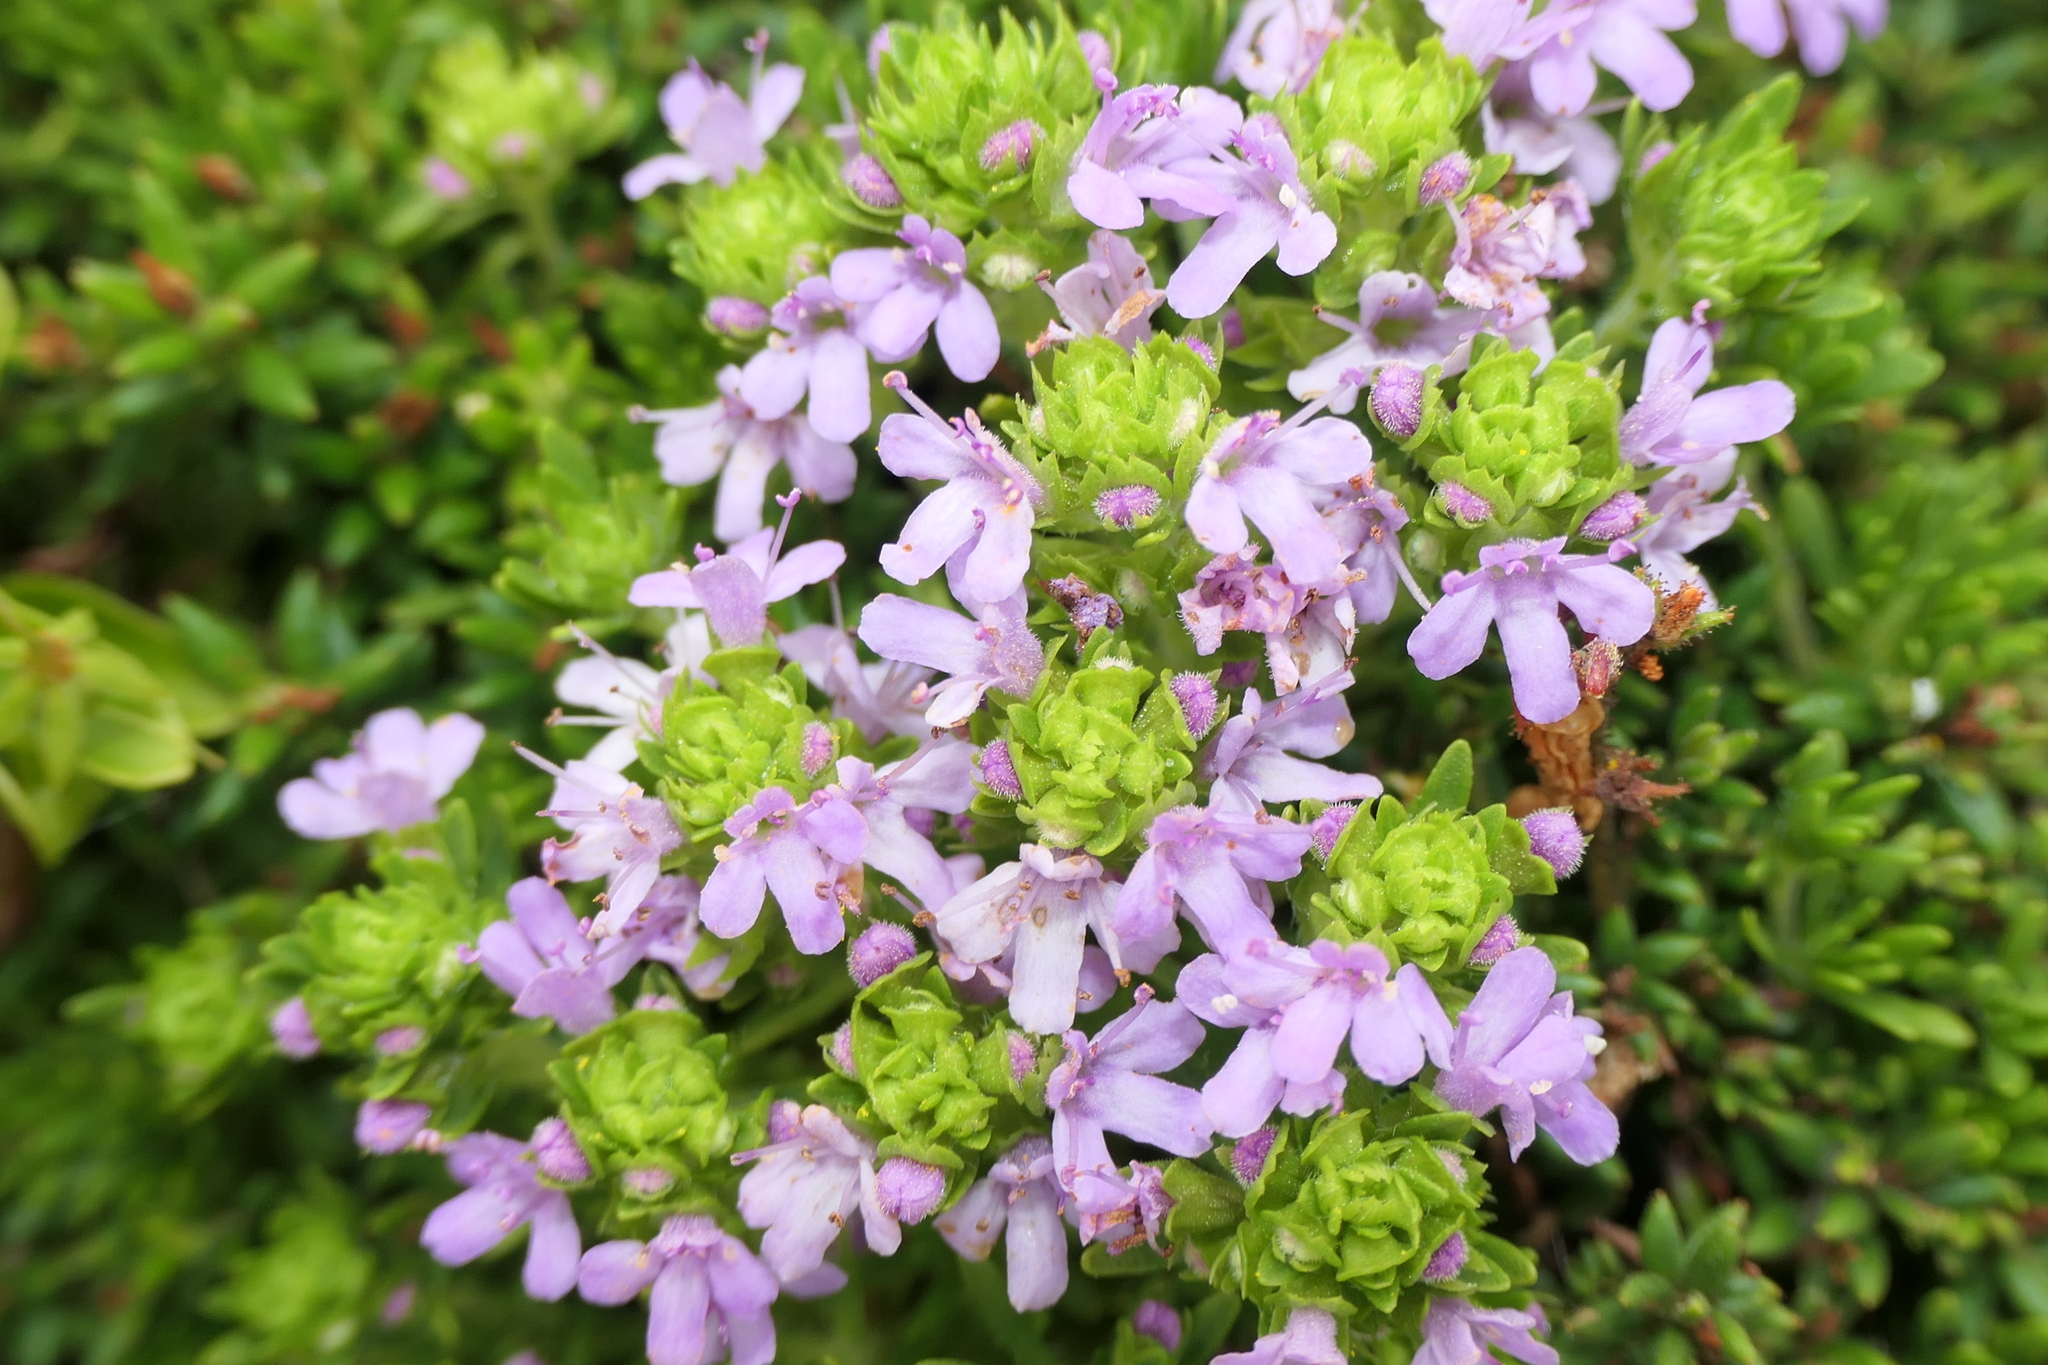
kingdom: Plantae
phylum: Tracheophyta
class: Magnoliopsida
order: Lamiales
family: Lamiaceae
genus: Thymus
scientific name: Thymus caespititius
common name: Azores thyme
